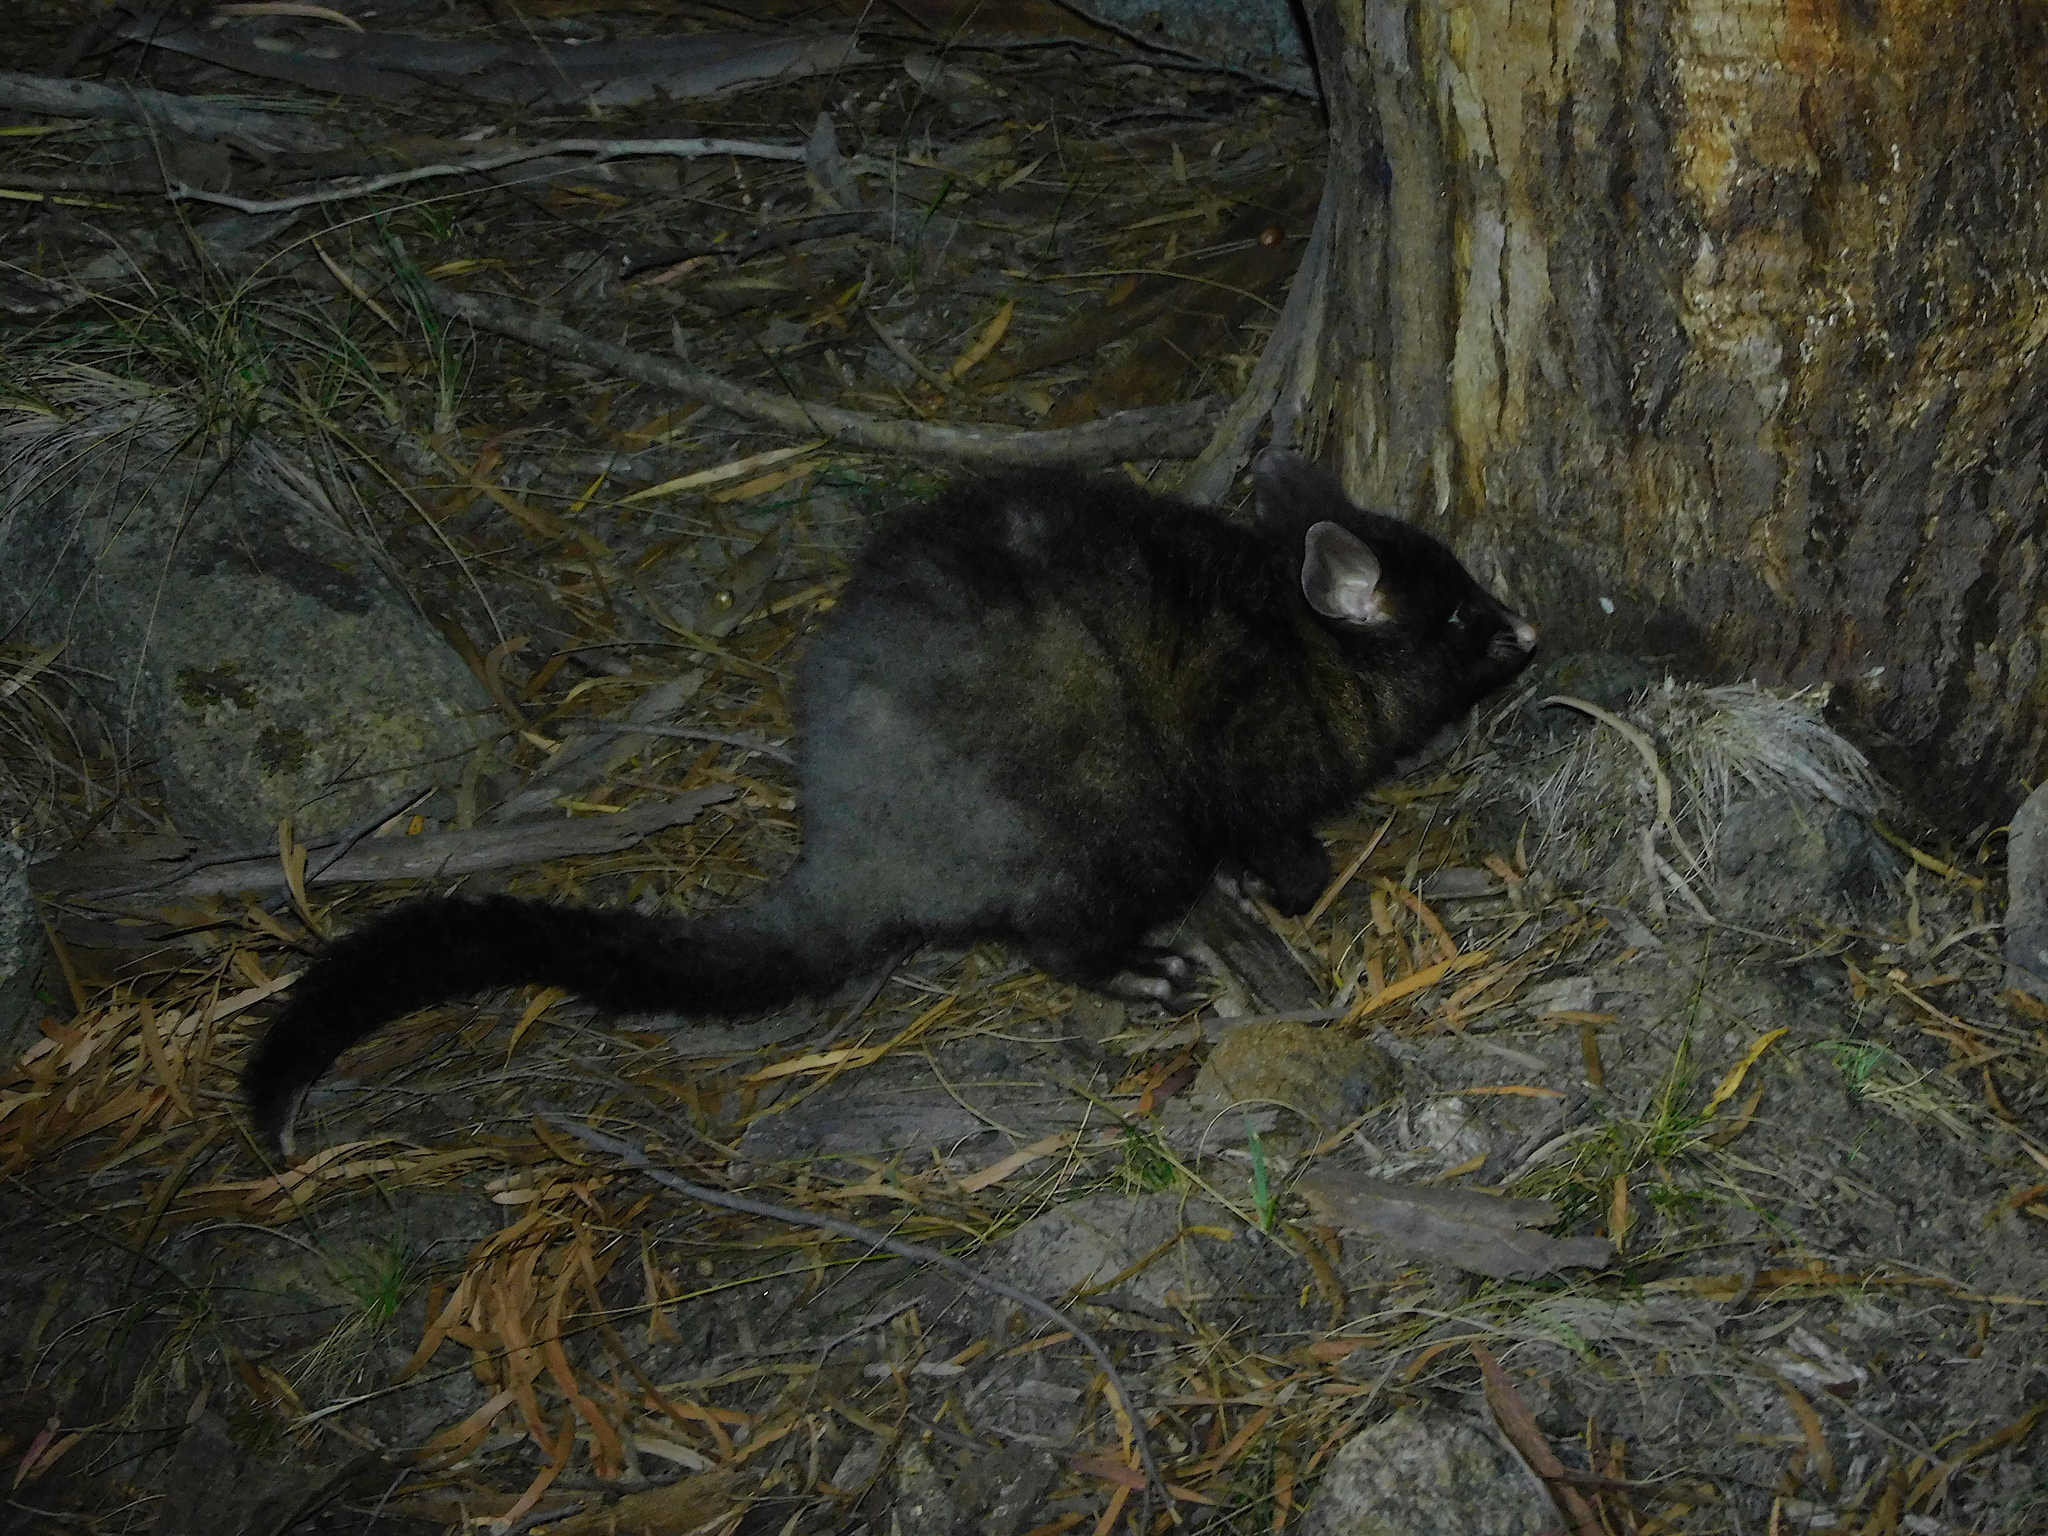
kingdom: Animalia
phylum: Chordata
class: Mammalia
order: Diprotodontia
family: Phalangeridae
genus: Trichosurus
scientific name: Trichosurus vulpecula
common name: Common brushtail
